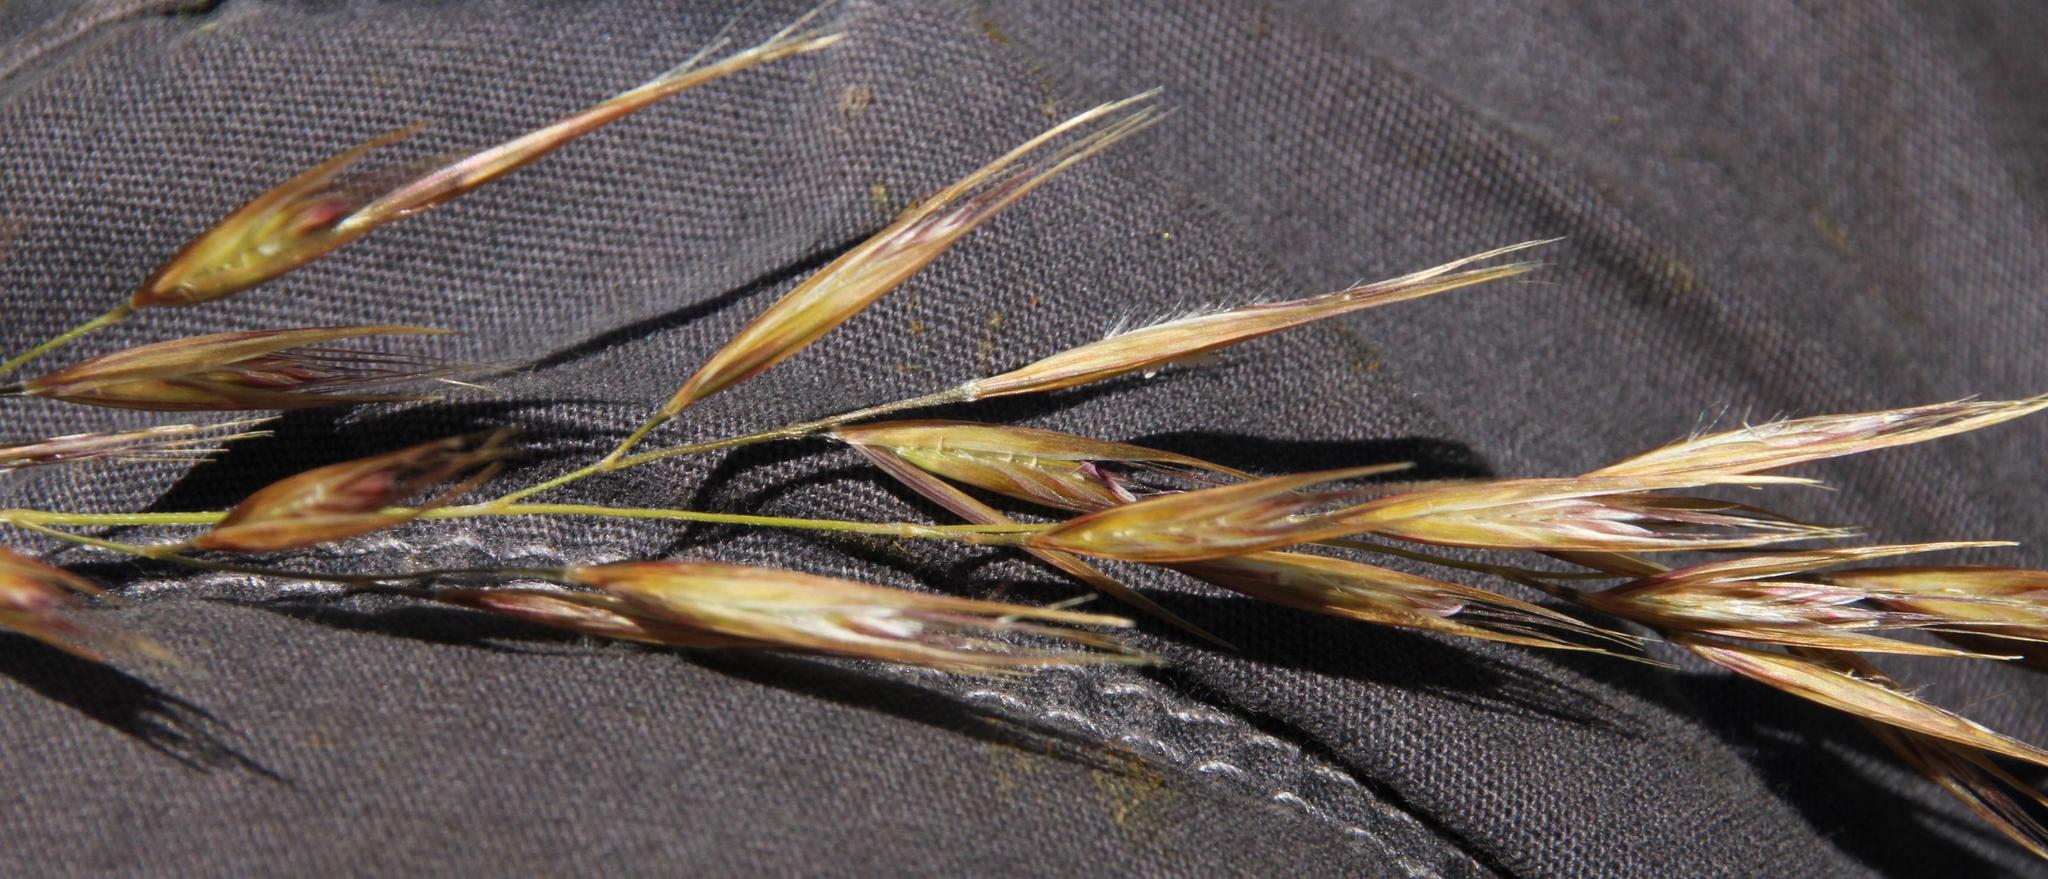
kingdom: Plantae
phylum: Tracheophyta
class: Liliopsida
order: Poales
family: Poaceae
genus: Tenaxia
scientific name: Tenaxia stricta
